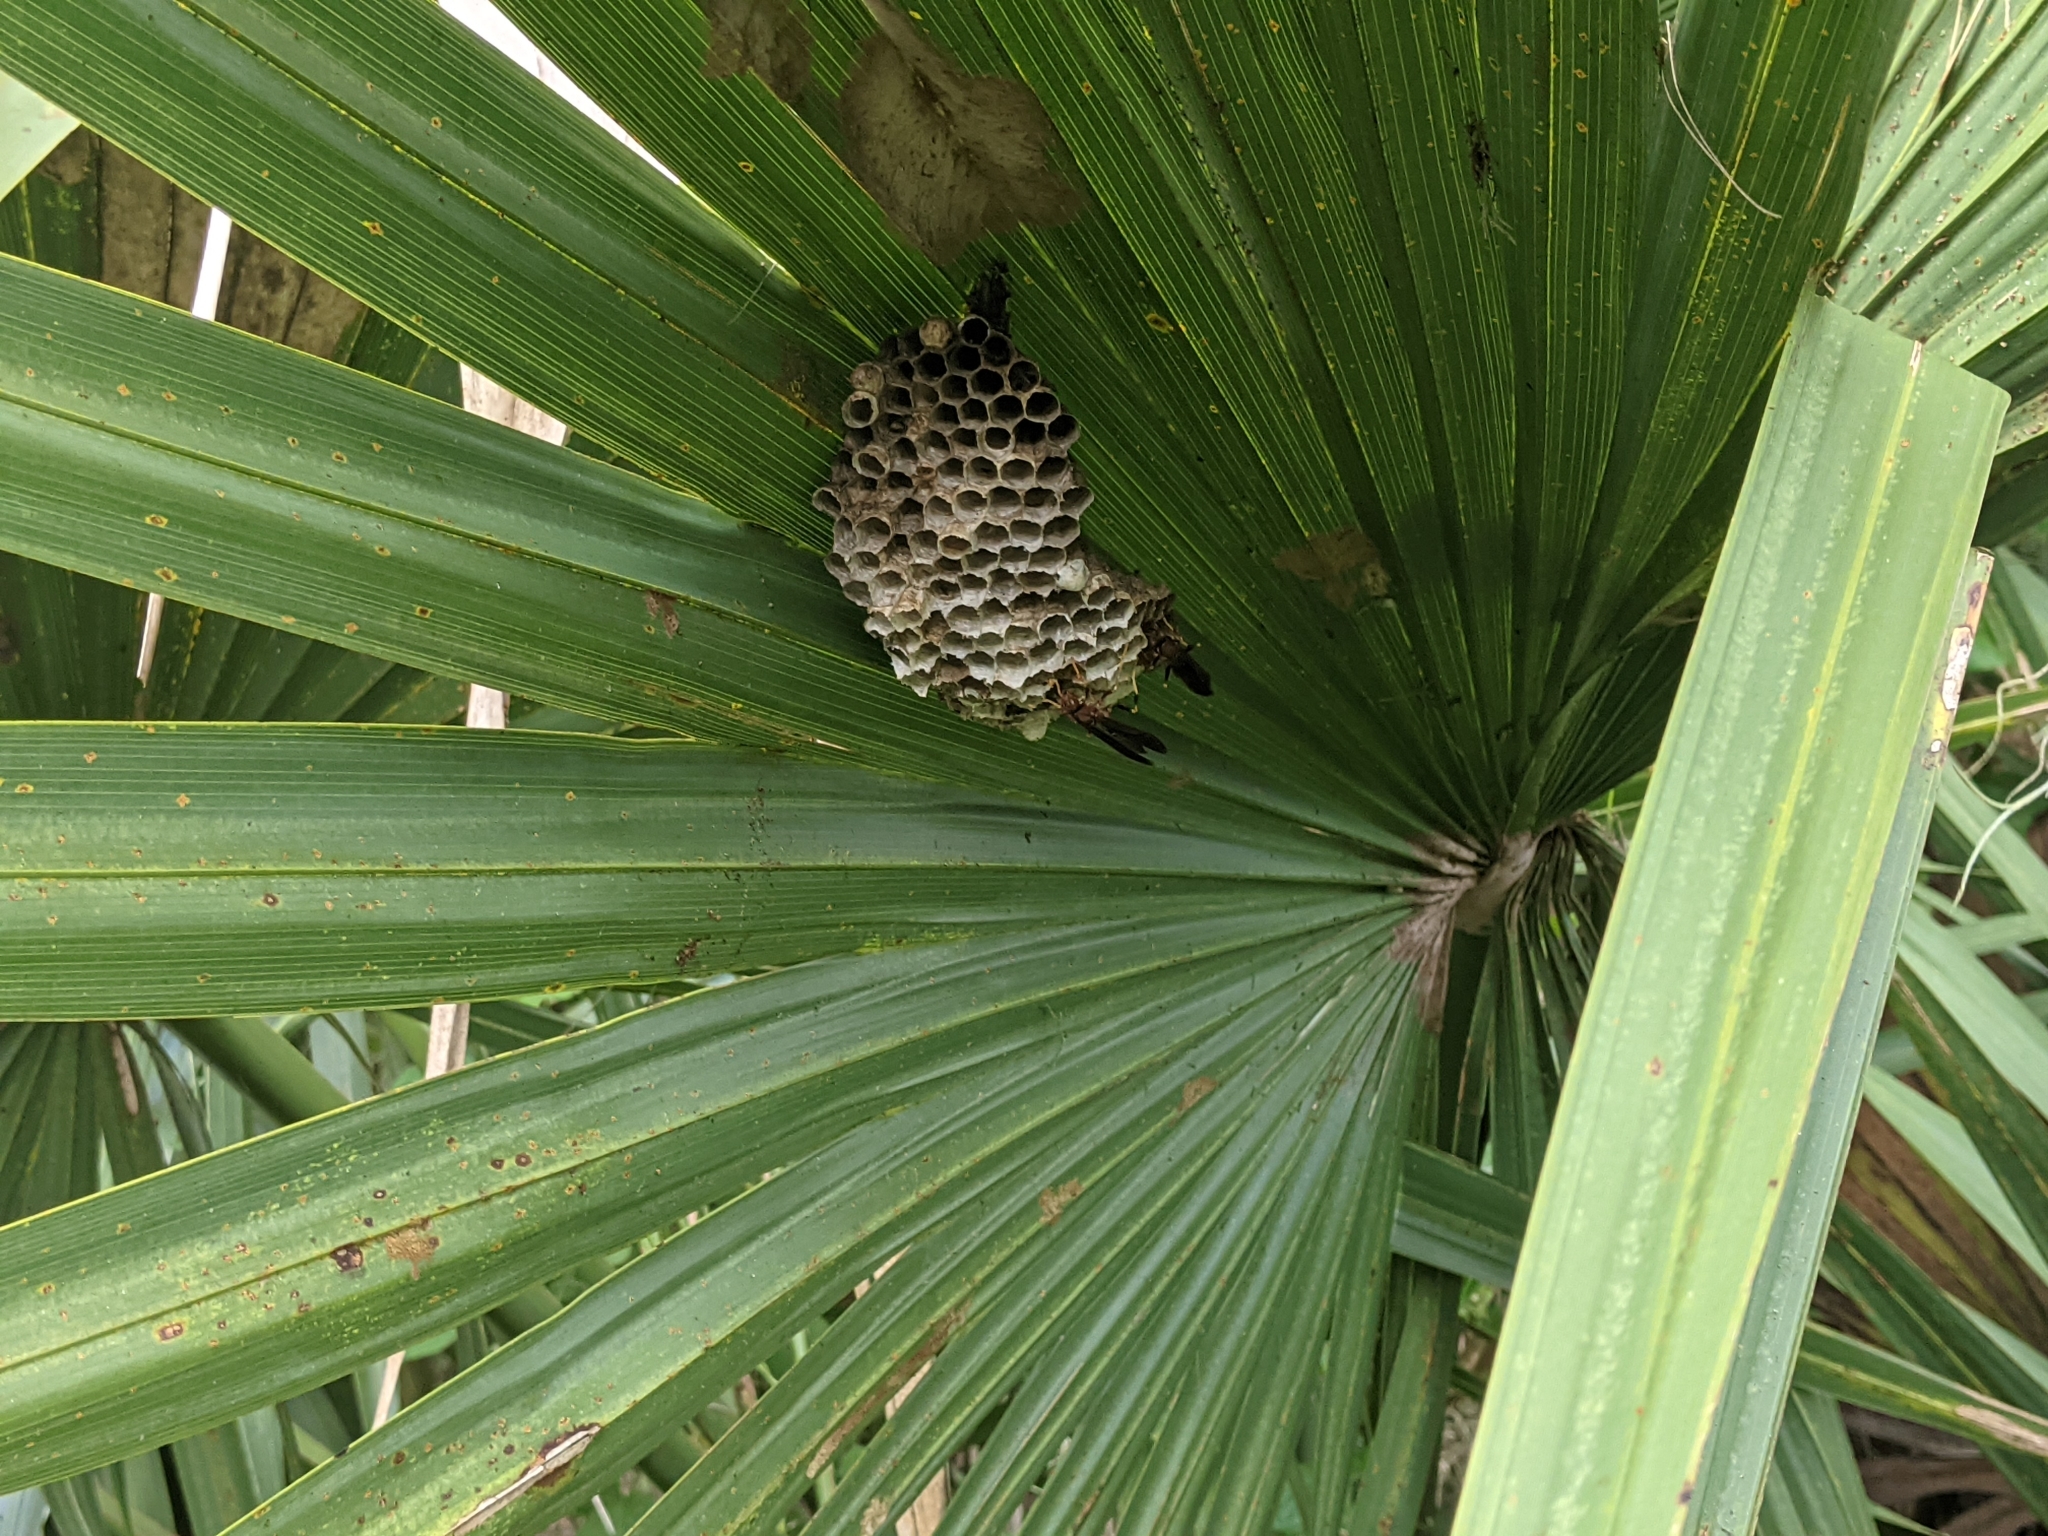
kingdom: Animalia
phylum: Arthropoda
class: Insecta
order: Hymenoptera
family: Vespidae
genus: Fuscopolistes
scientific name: Fuscopolistes
